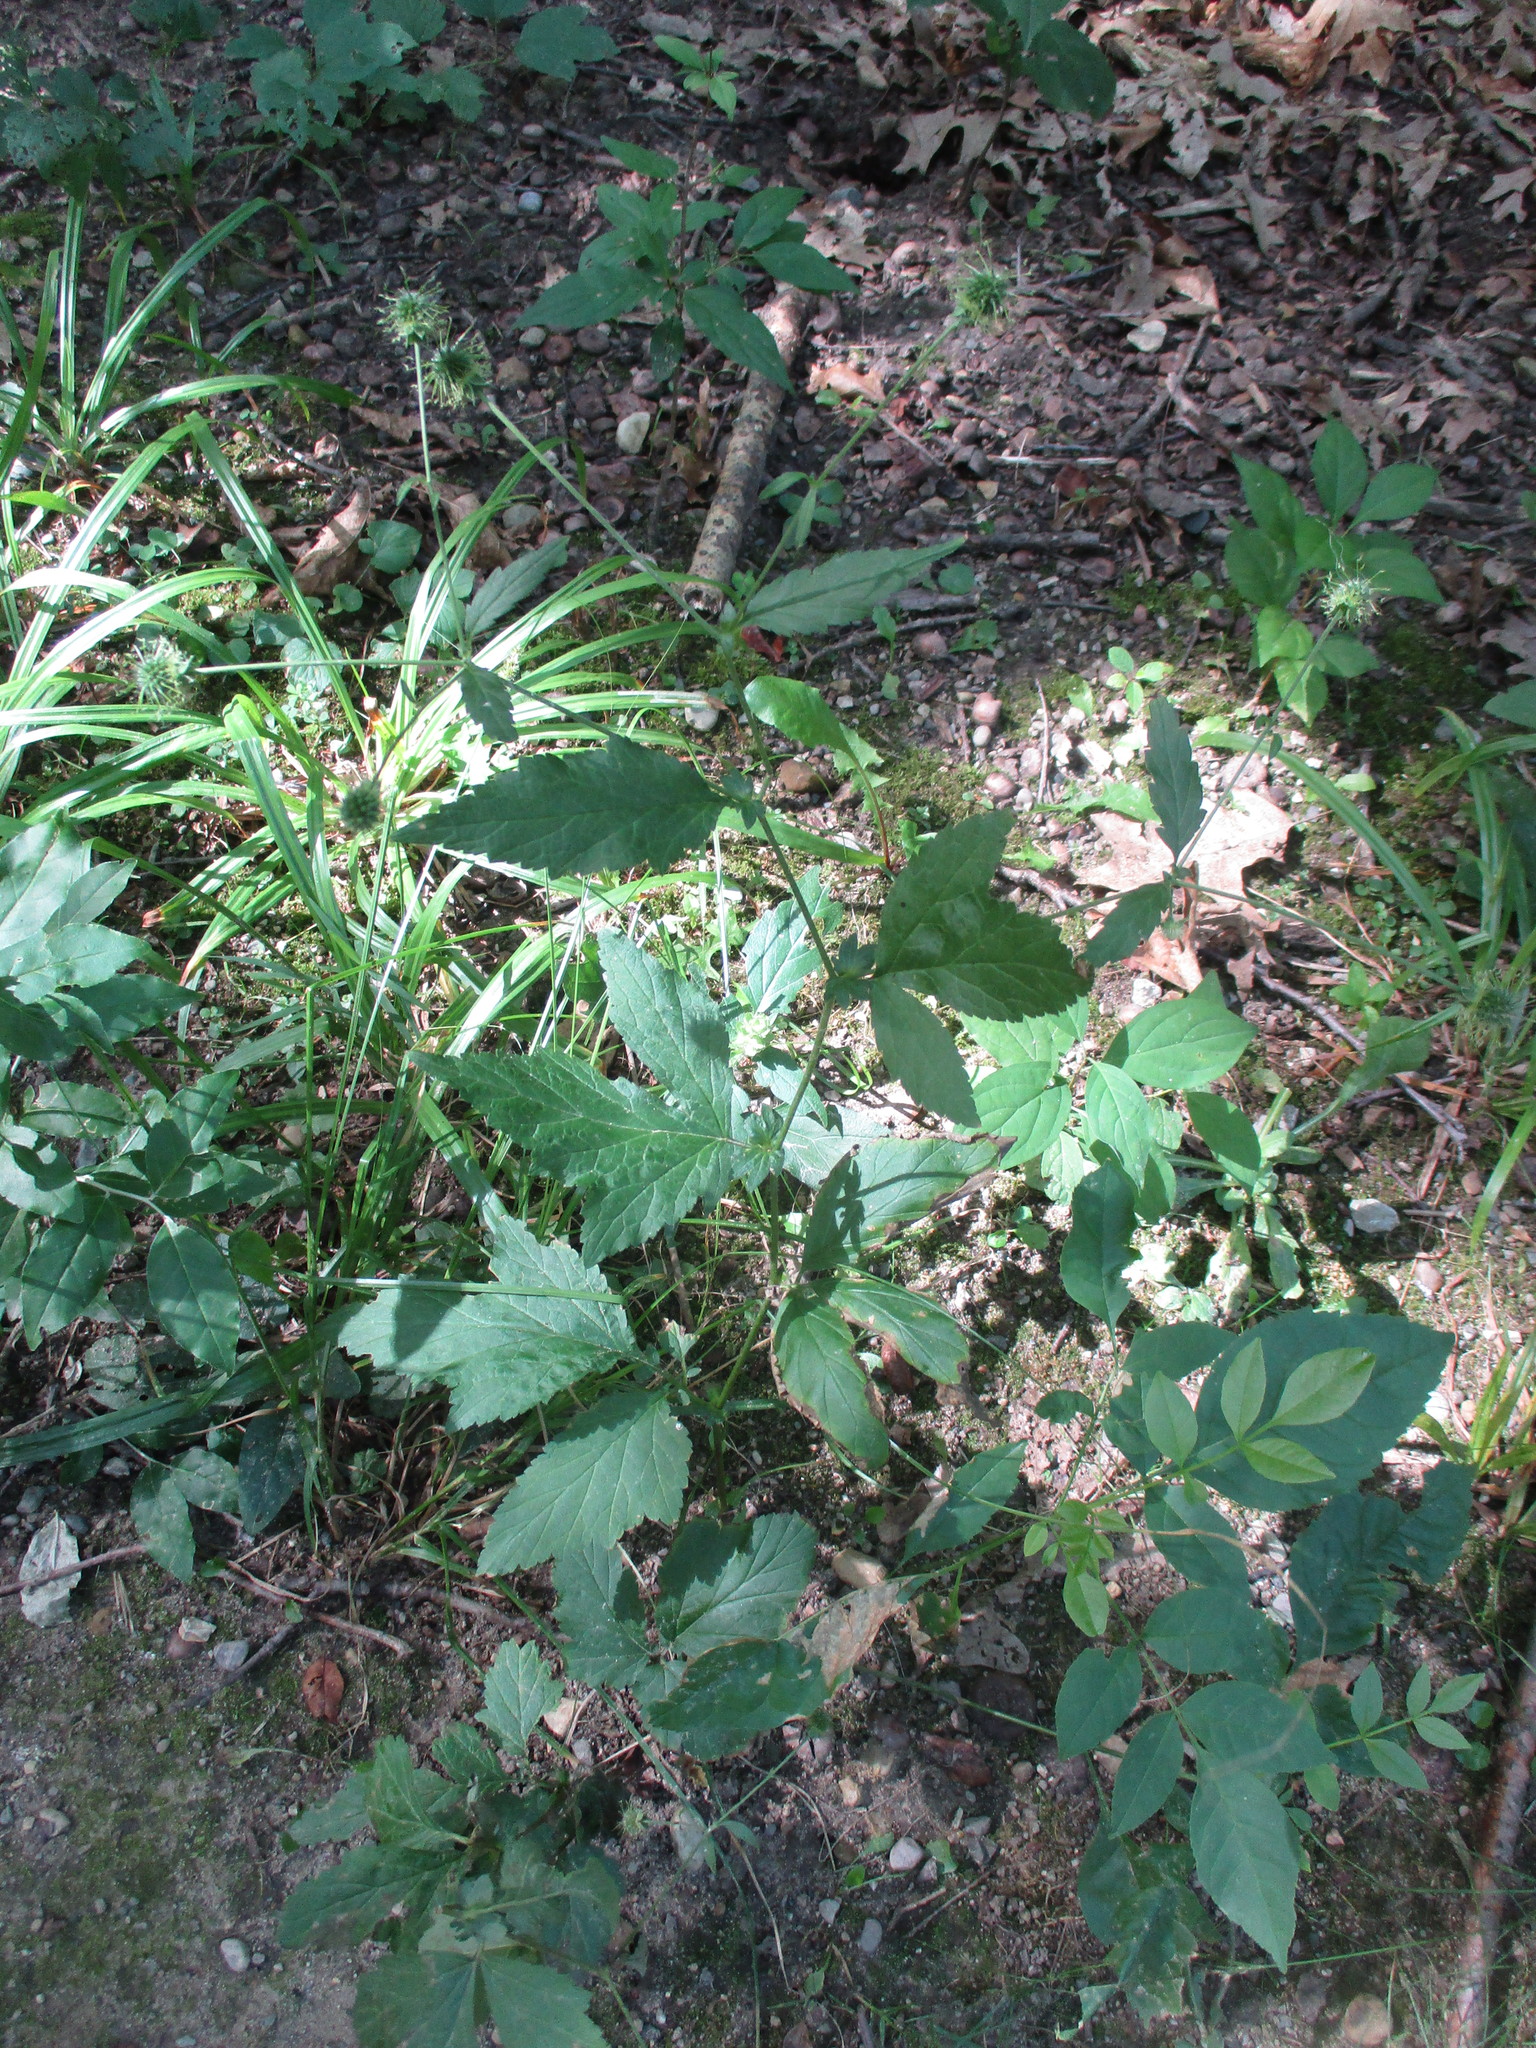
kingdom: Plantae
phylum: Tracheophyta
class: Magnoliopsida
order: Rosales
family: Rosaceae
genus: Geum
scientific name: Geum canadense
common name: White avens
